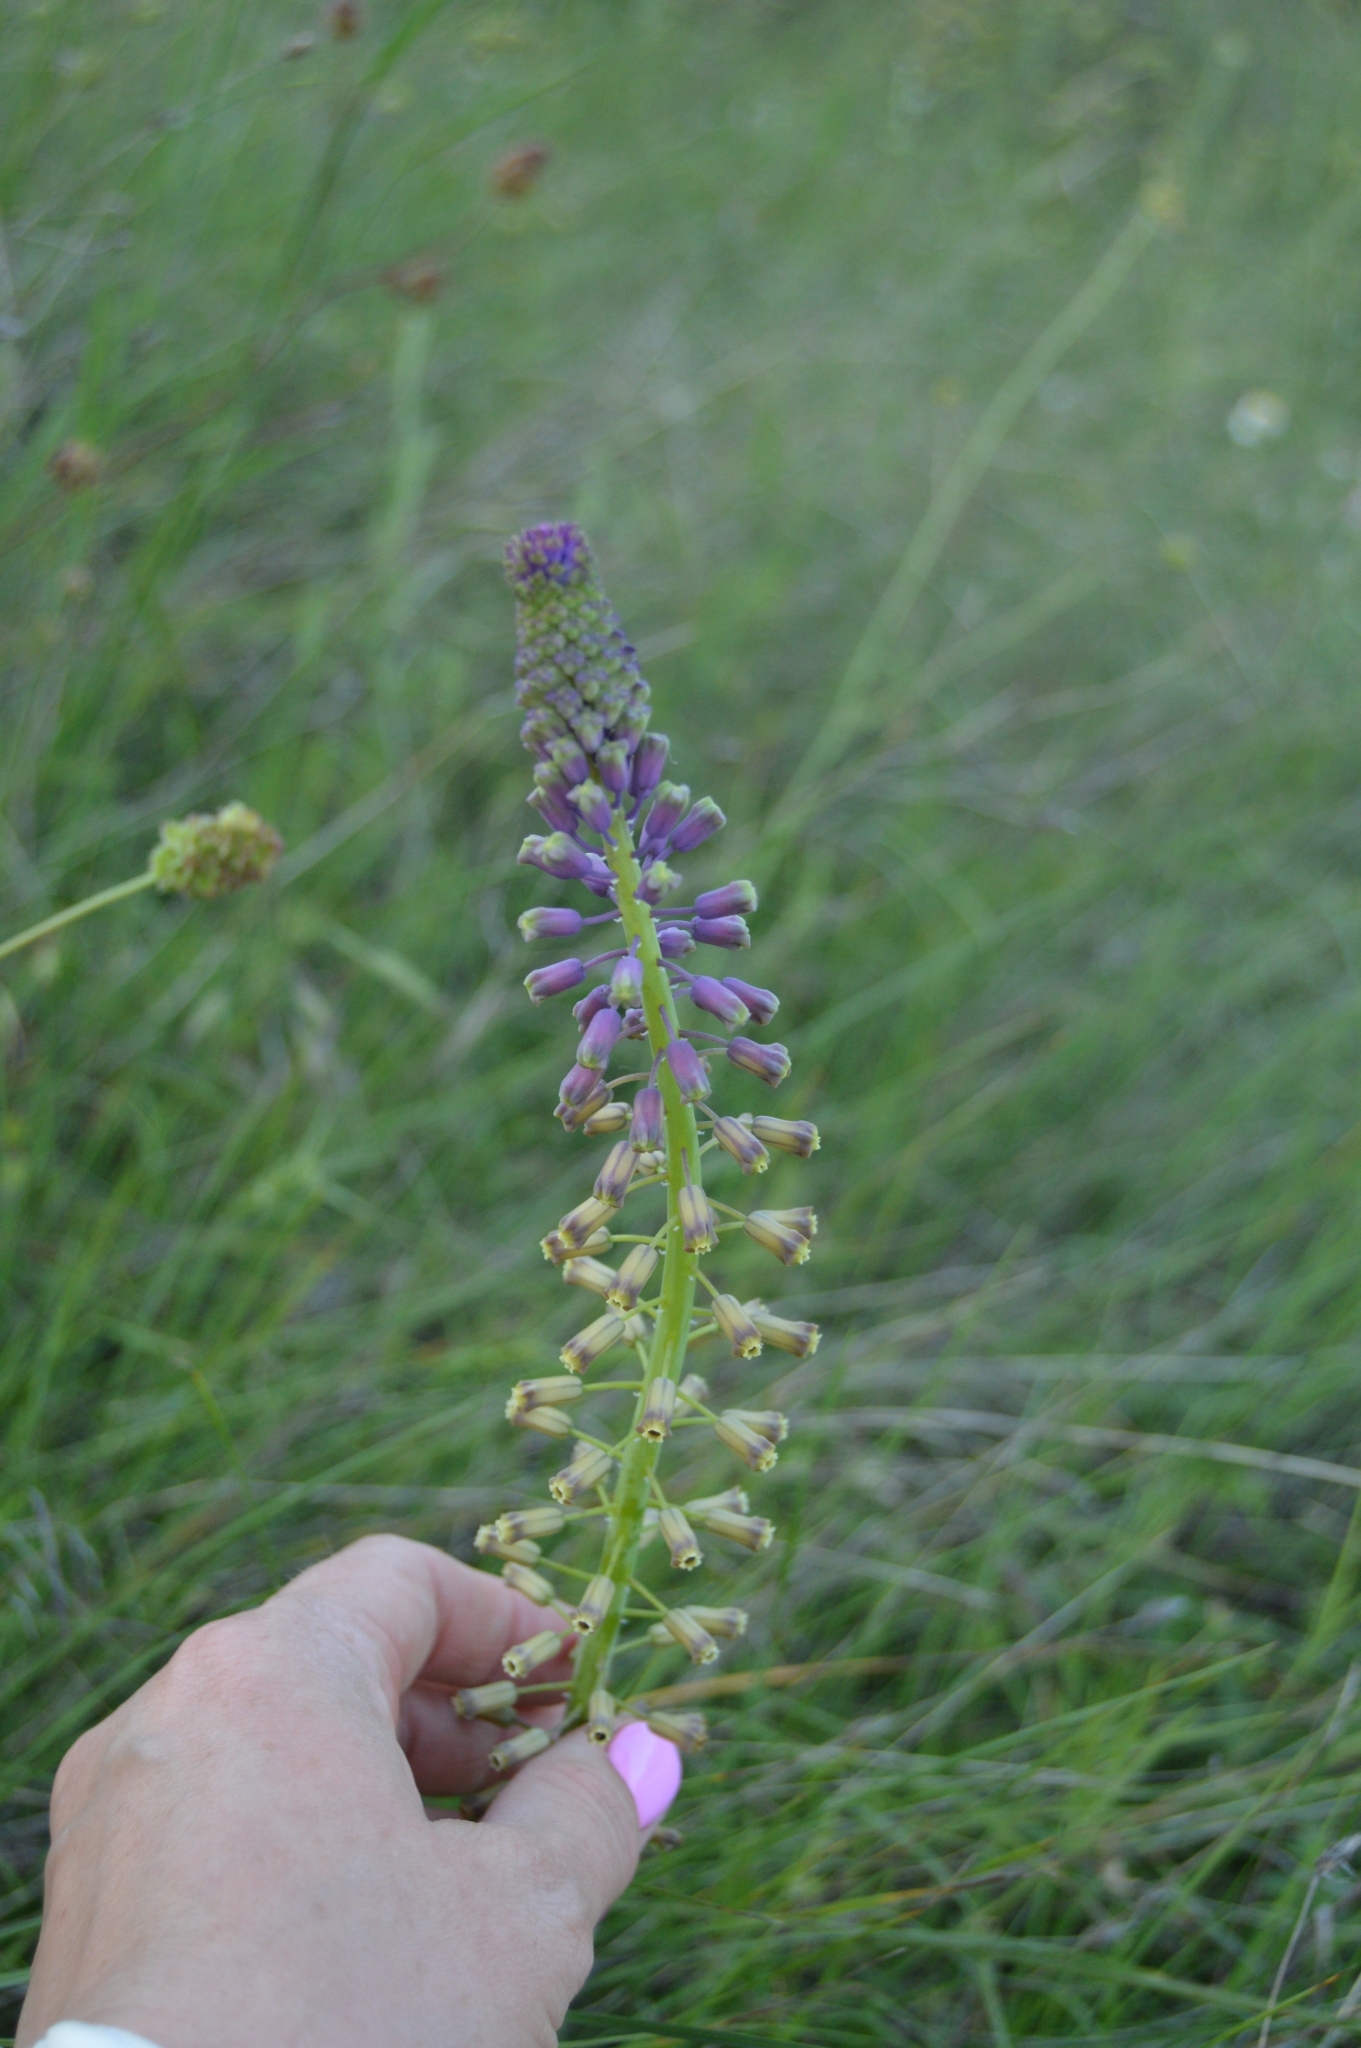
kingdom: Plantae
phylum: Tracheophyta
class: Liliopsida
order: Asparagales
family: Asparagaceae
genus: Muscari
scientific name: Muscari comosum
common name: Tassel hyacinth
